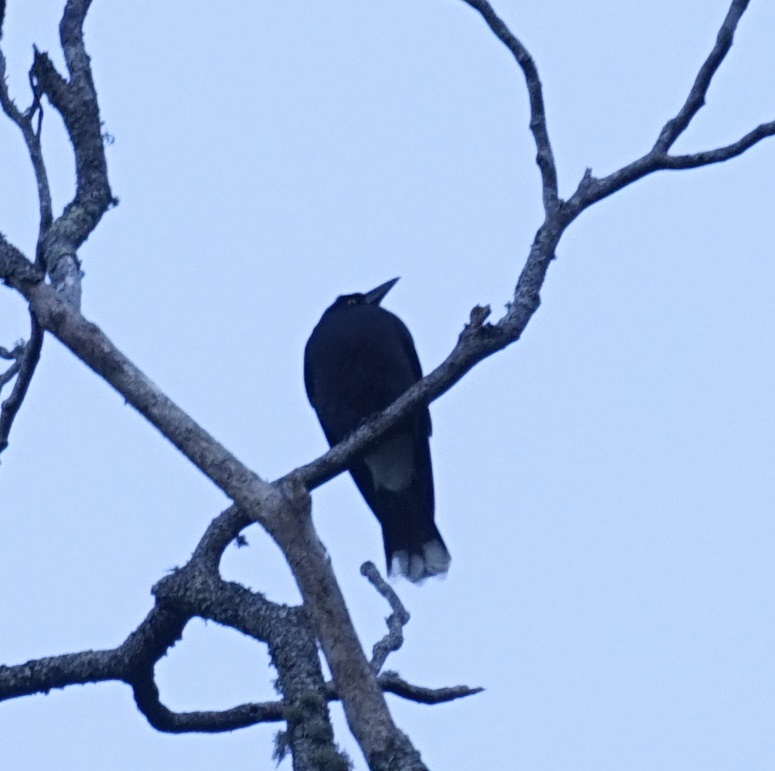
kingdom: Animalia
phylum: Chordata
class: Aves
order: Passeriformes
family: Cracticidae
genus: Strepera
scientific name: Strepera graculina
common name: Pied currawong
